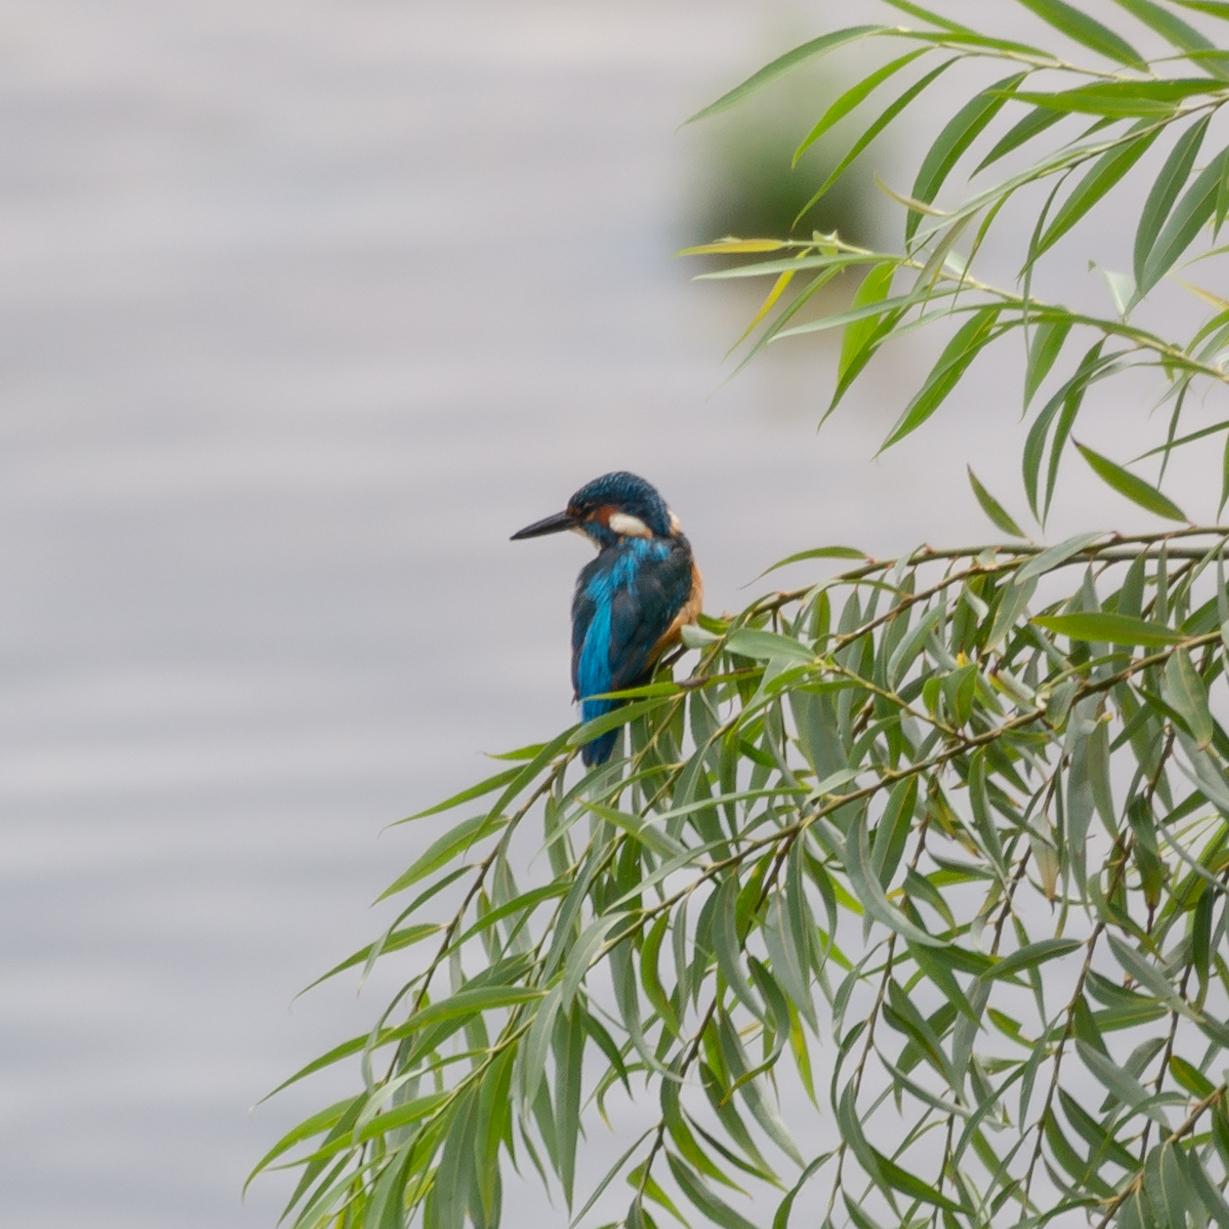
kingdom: Animalia
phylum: Chordata
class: Aves
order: Coraciiformes
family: Alcedinidae
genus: Alcedo
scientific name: Alcedo atthis
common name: Common kingfisher
